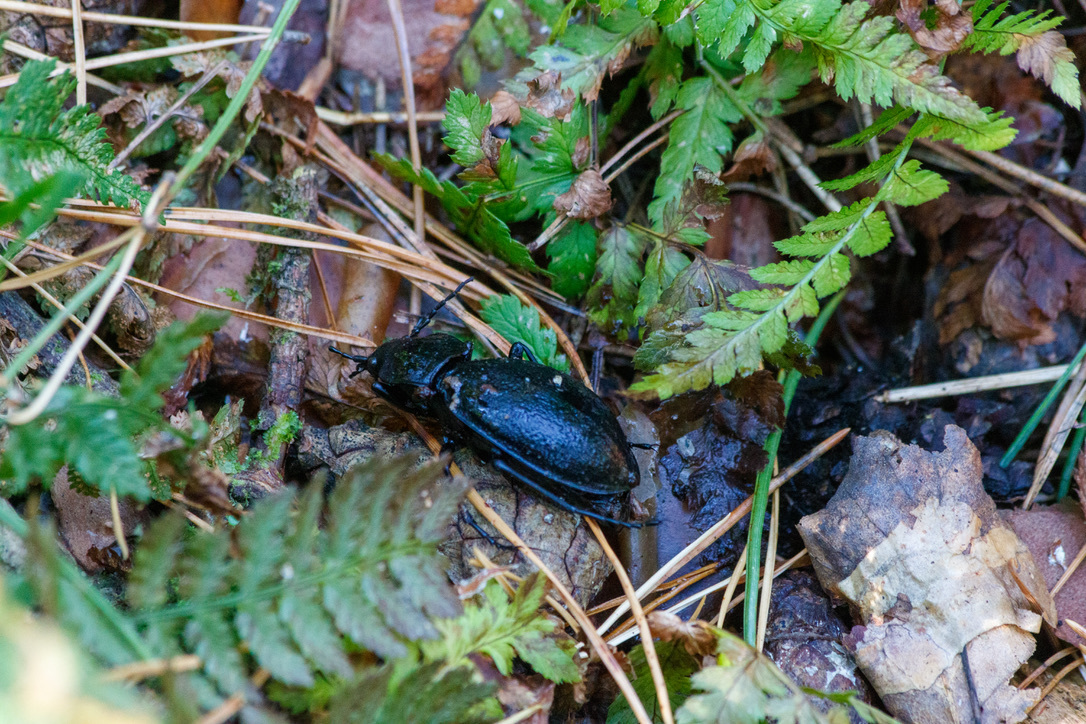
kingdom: Animalia
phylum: Arthropoda
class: Insecta
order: Coleoptera
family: Carabidae
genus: Carabus
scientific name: Carabus coriaceus
